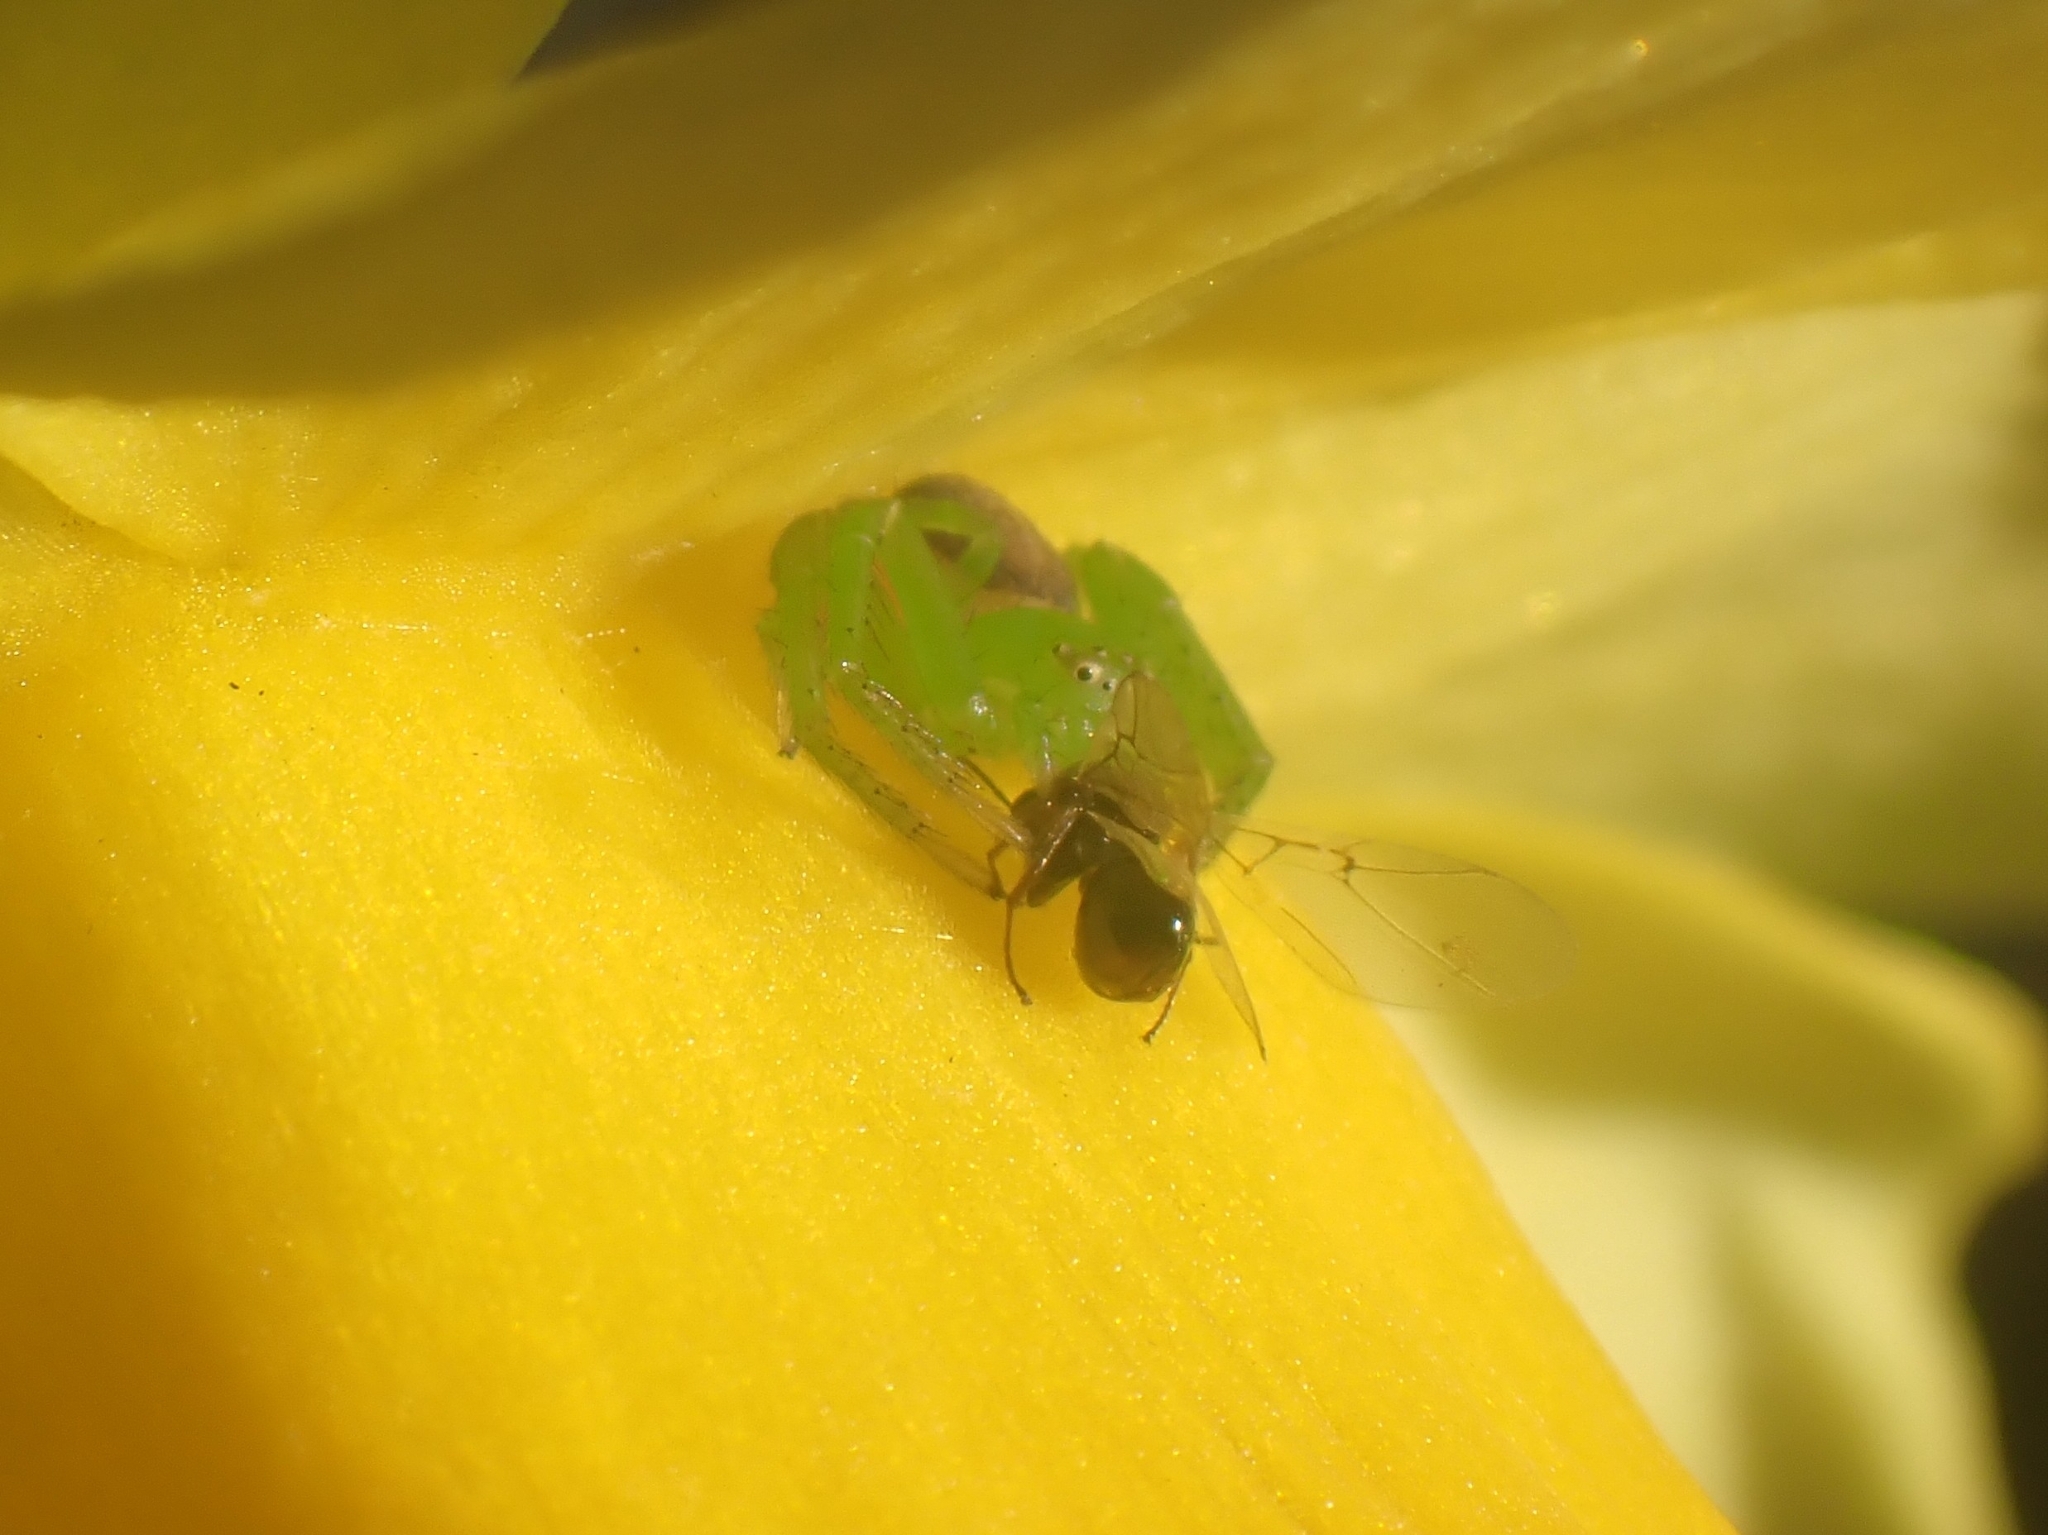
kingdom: Animalia
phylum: Arthropoda
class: Arachnida
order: Araneae
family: Thomisidae
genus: Diaea
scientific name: Diaea dorsata
